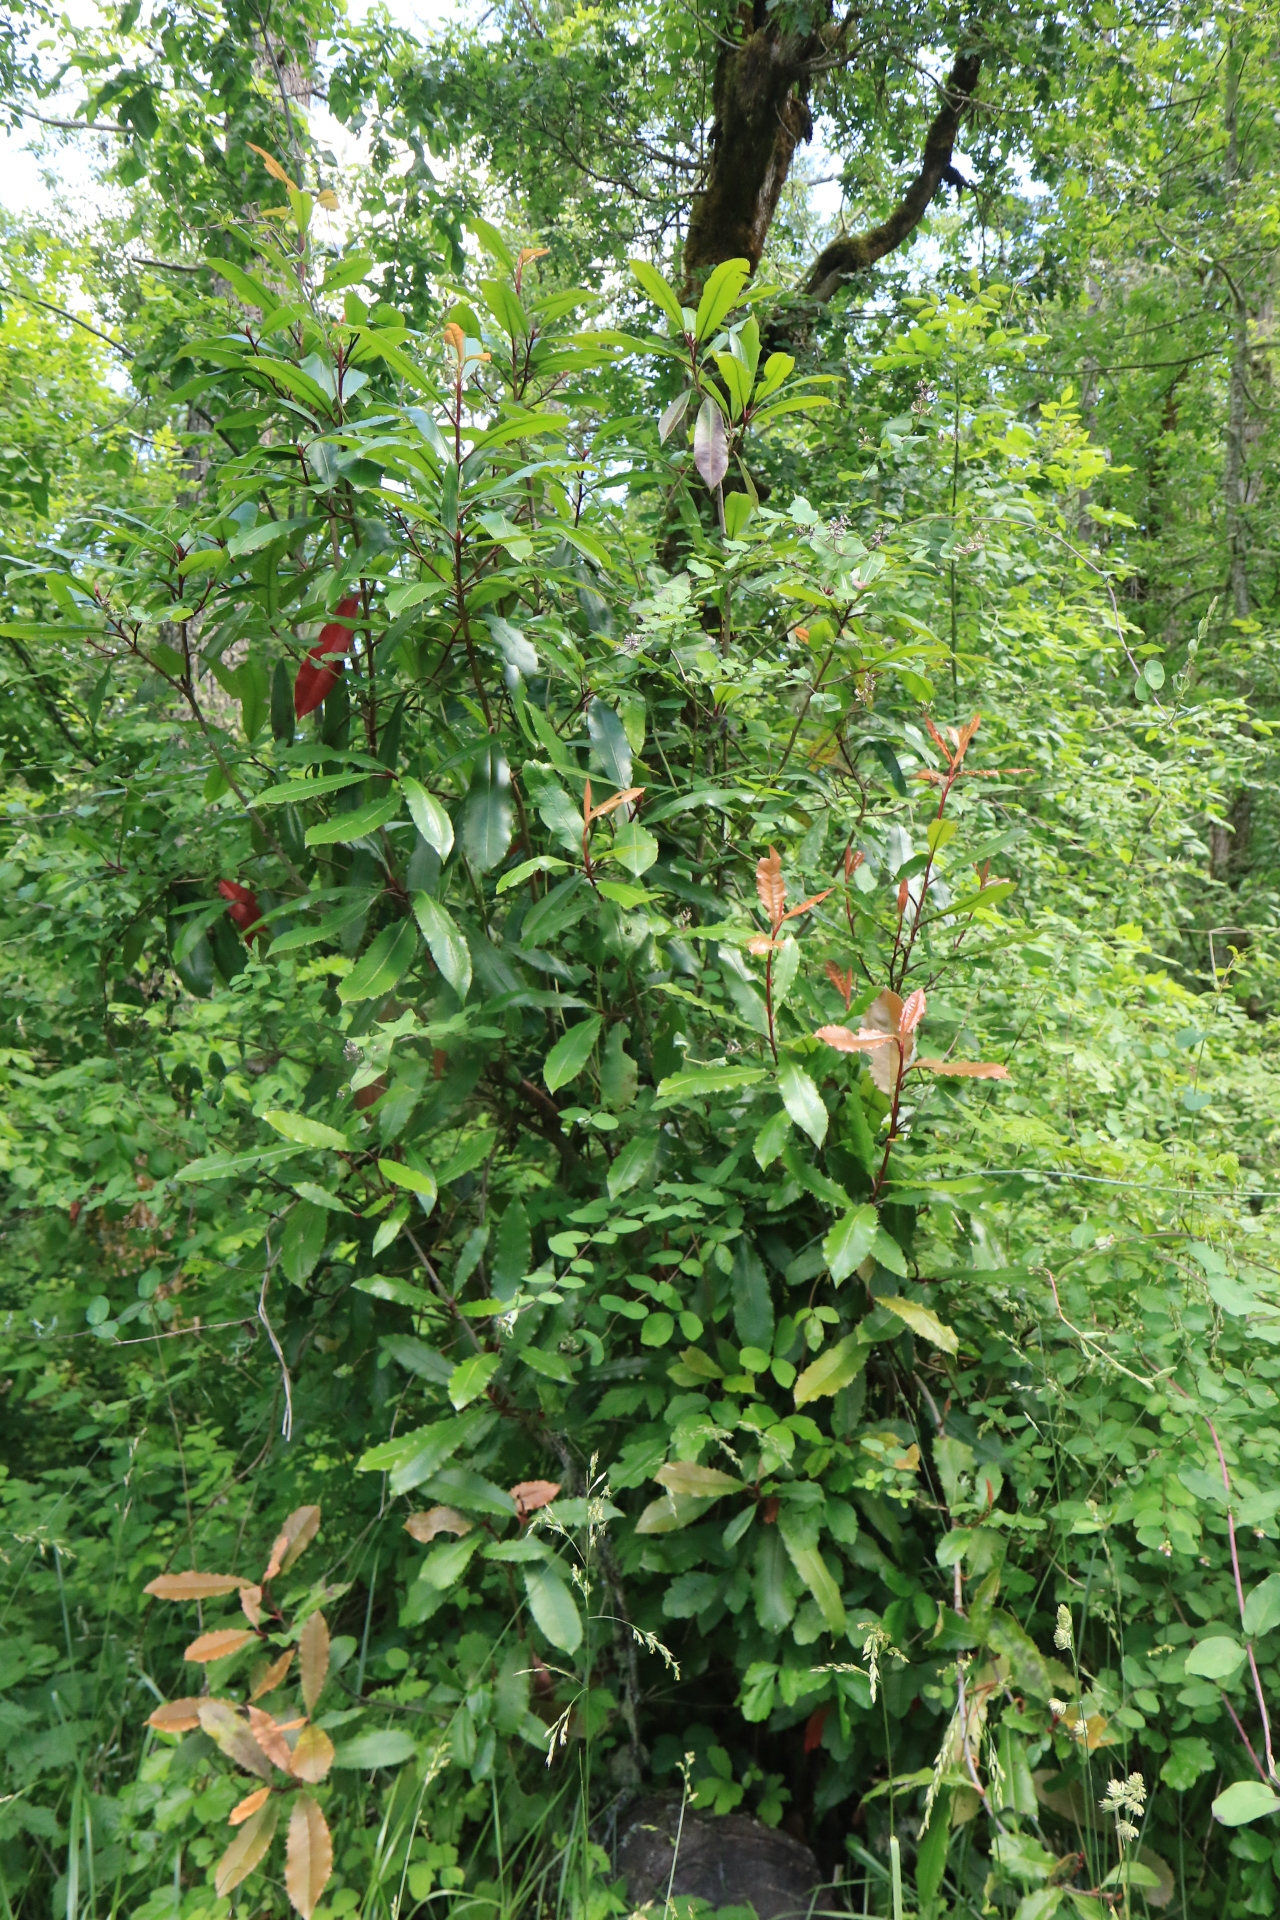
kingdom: Plantae
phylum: Tracheophyta
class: Magnoliopsida
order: Rosales
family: Rosaceae
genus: Photinia
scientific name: Photinia serratifolia
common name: Taiwanese photinia
